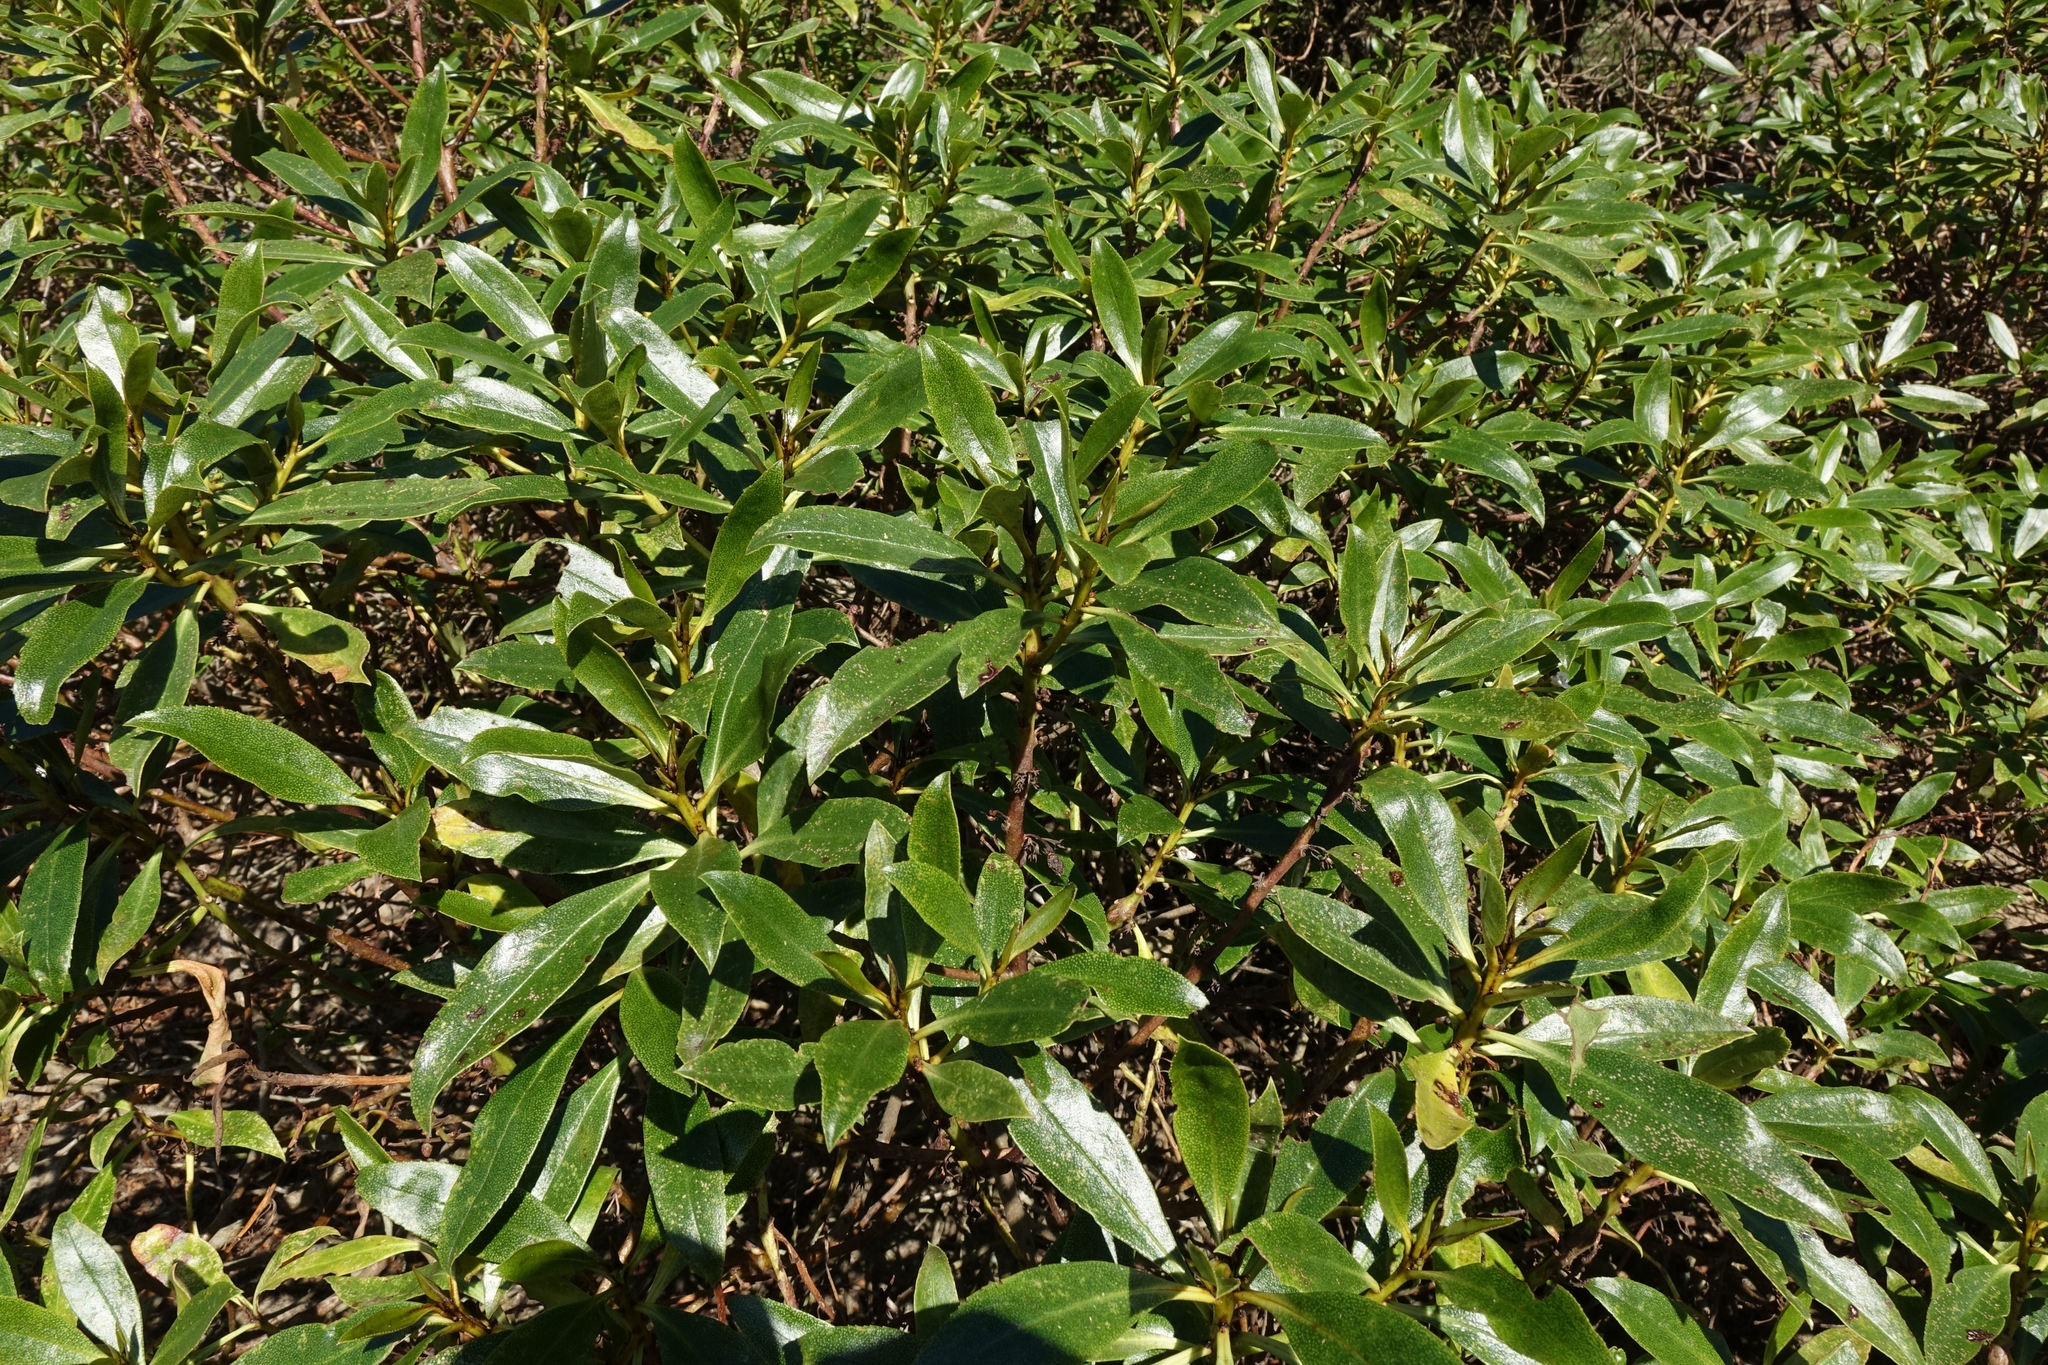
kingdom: Plantae
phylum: Tracheophyta
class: Magnoliopsida
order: Lamiales
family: Scrophulariaceae
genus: Myoporum
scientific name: Myoporum laetum
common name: Ngaio tree
